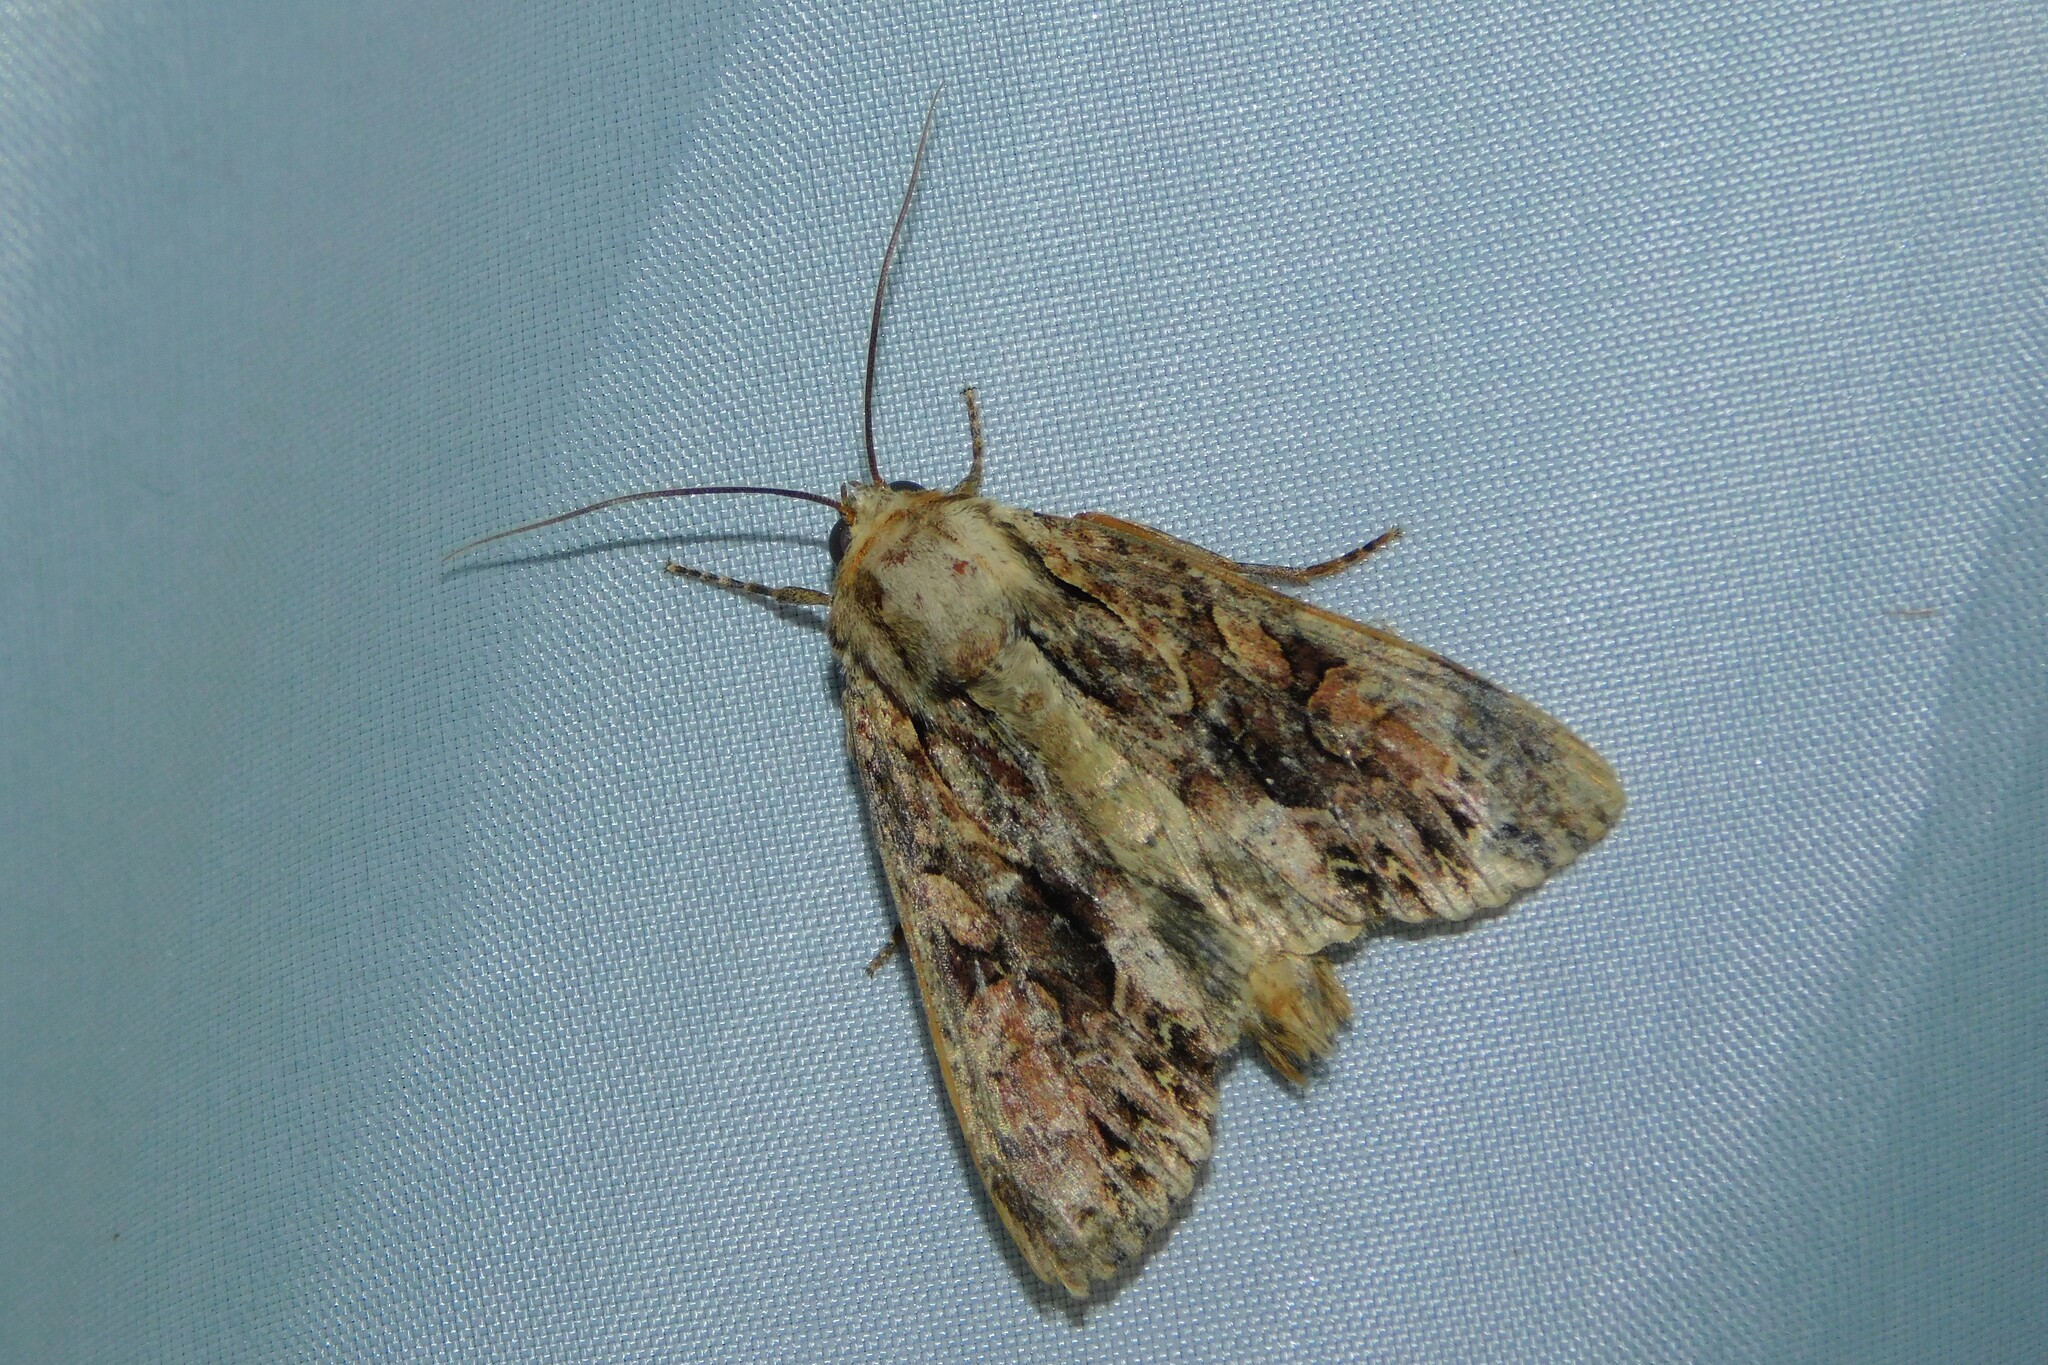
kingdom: Animalia
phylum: Arthropoda
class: Insecta
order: Lepidoptera
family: Noctuidae
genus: Apamea
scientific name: Apamea monoglypha
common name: Dark arches
